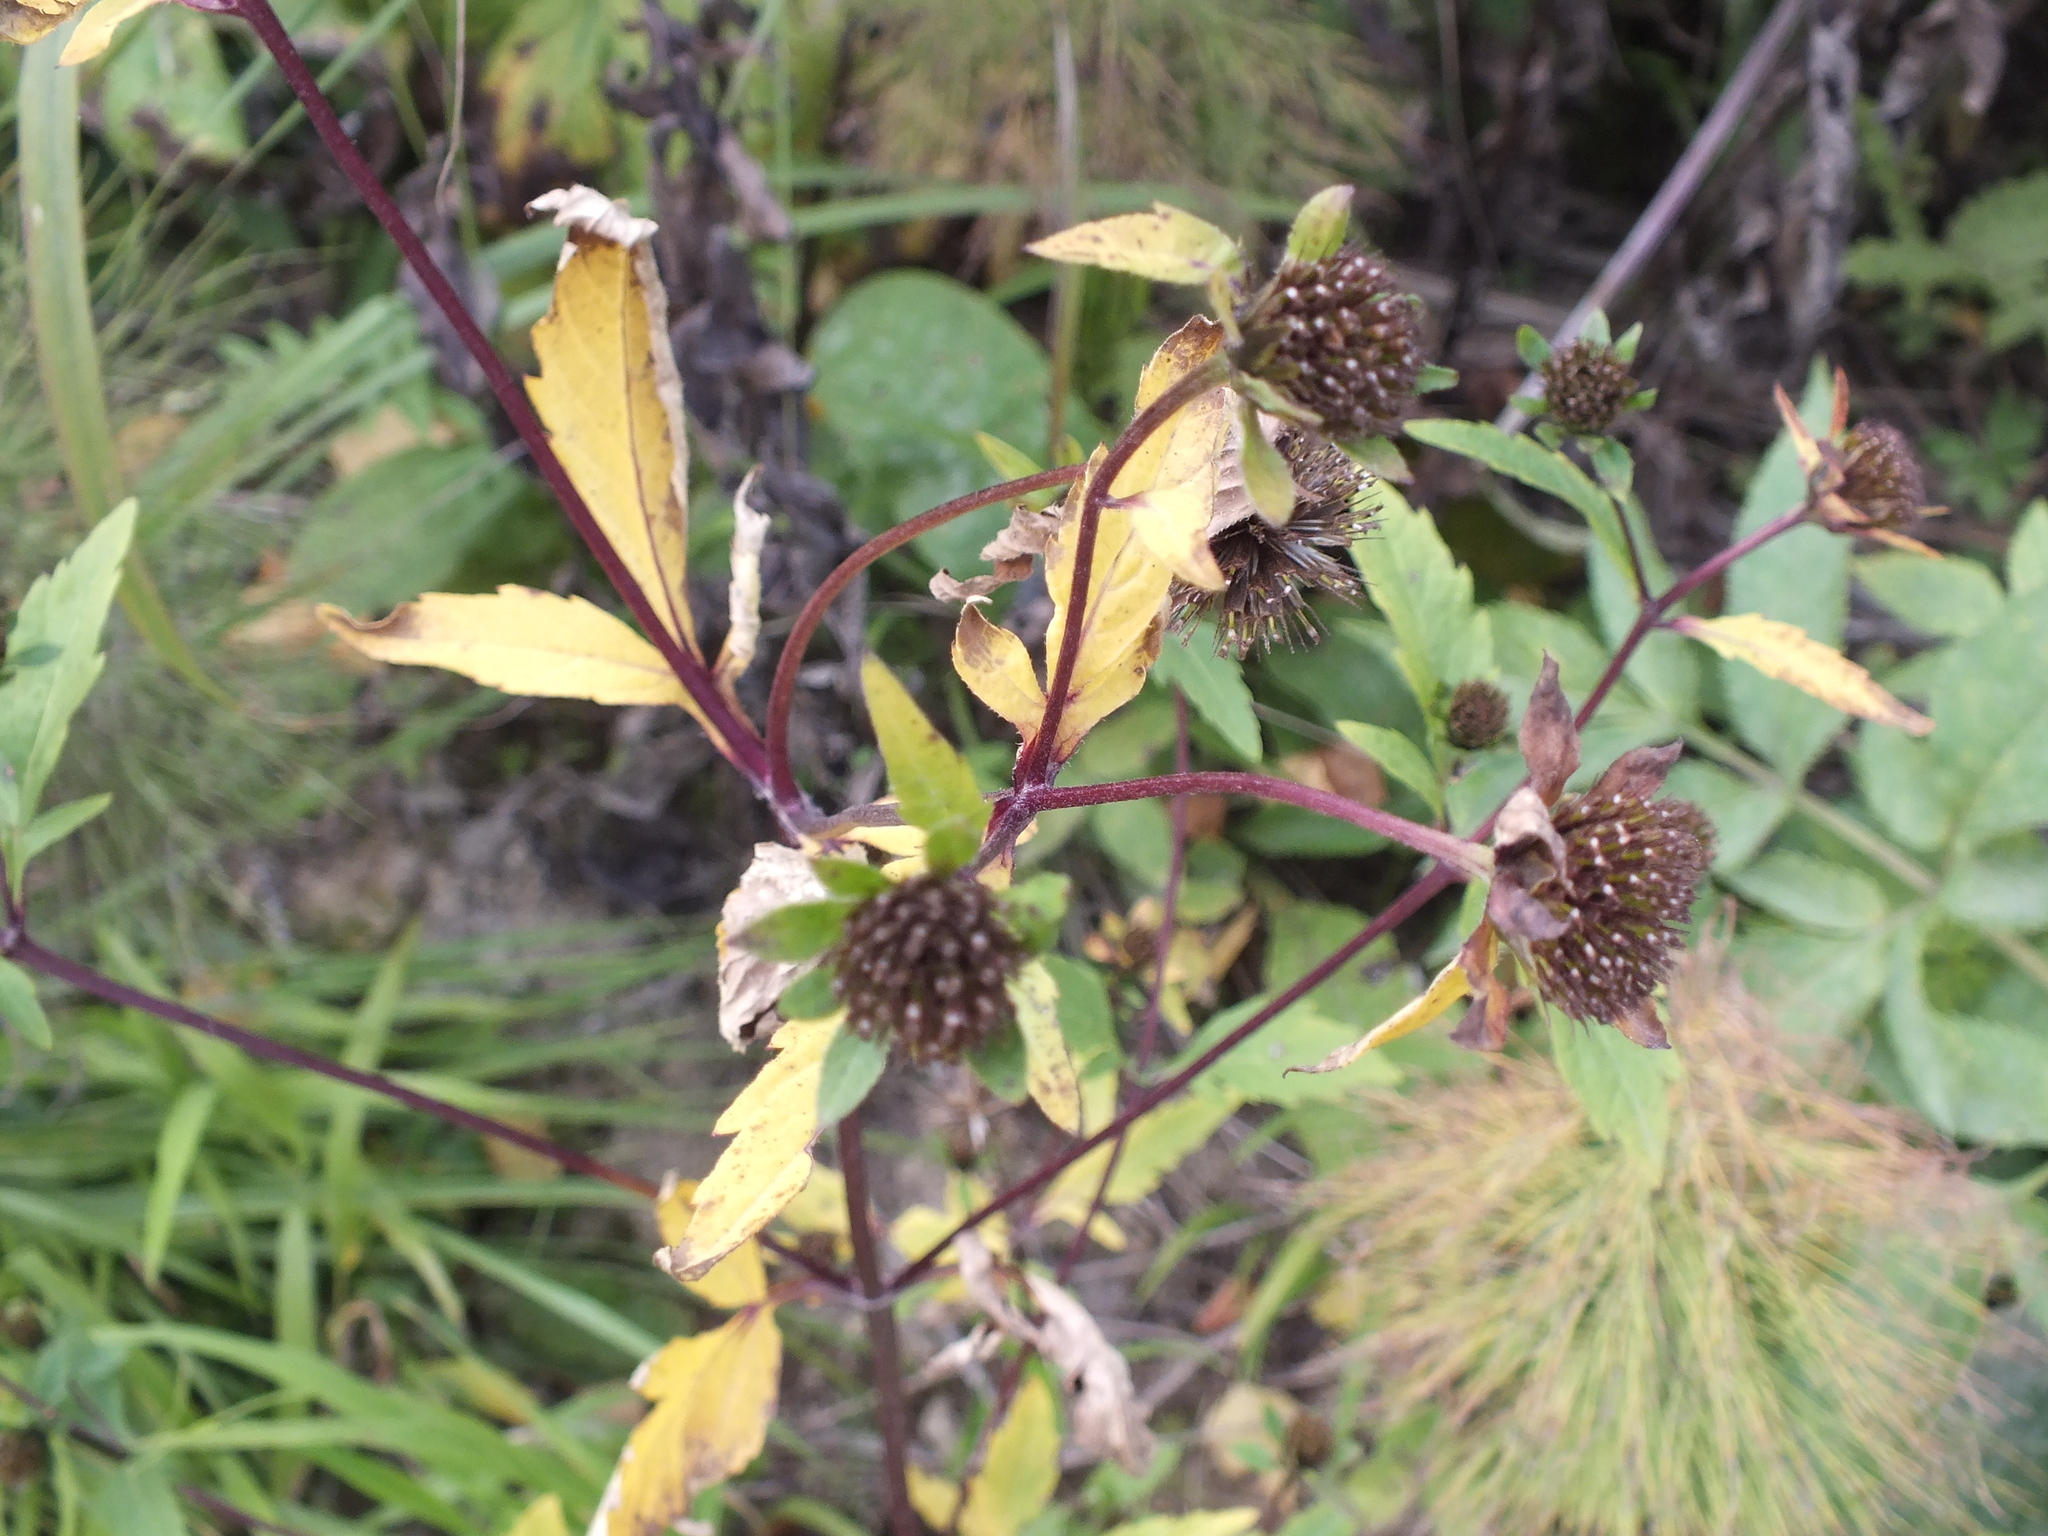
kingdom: Plantae
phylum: Tracheophyta
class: Magnoliopsida
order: Asterales
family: Asteraceae
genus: Bidens
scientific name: Bidens tripartita
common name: Trifid bur-marigold
